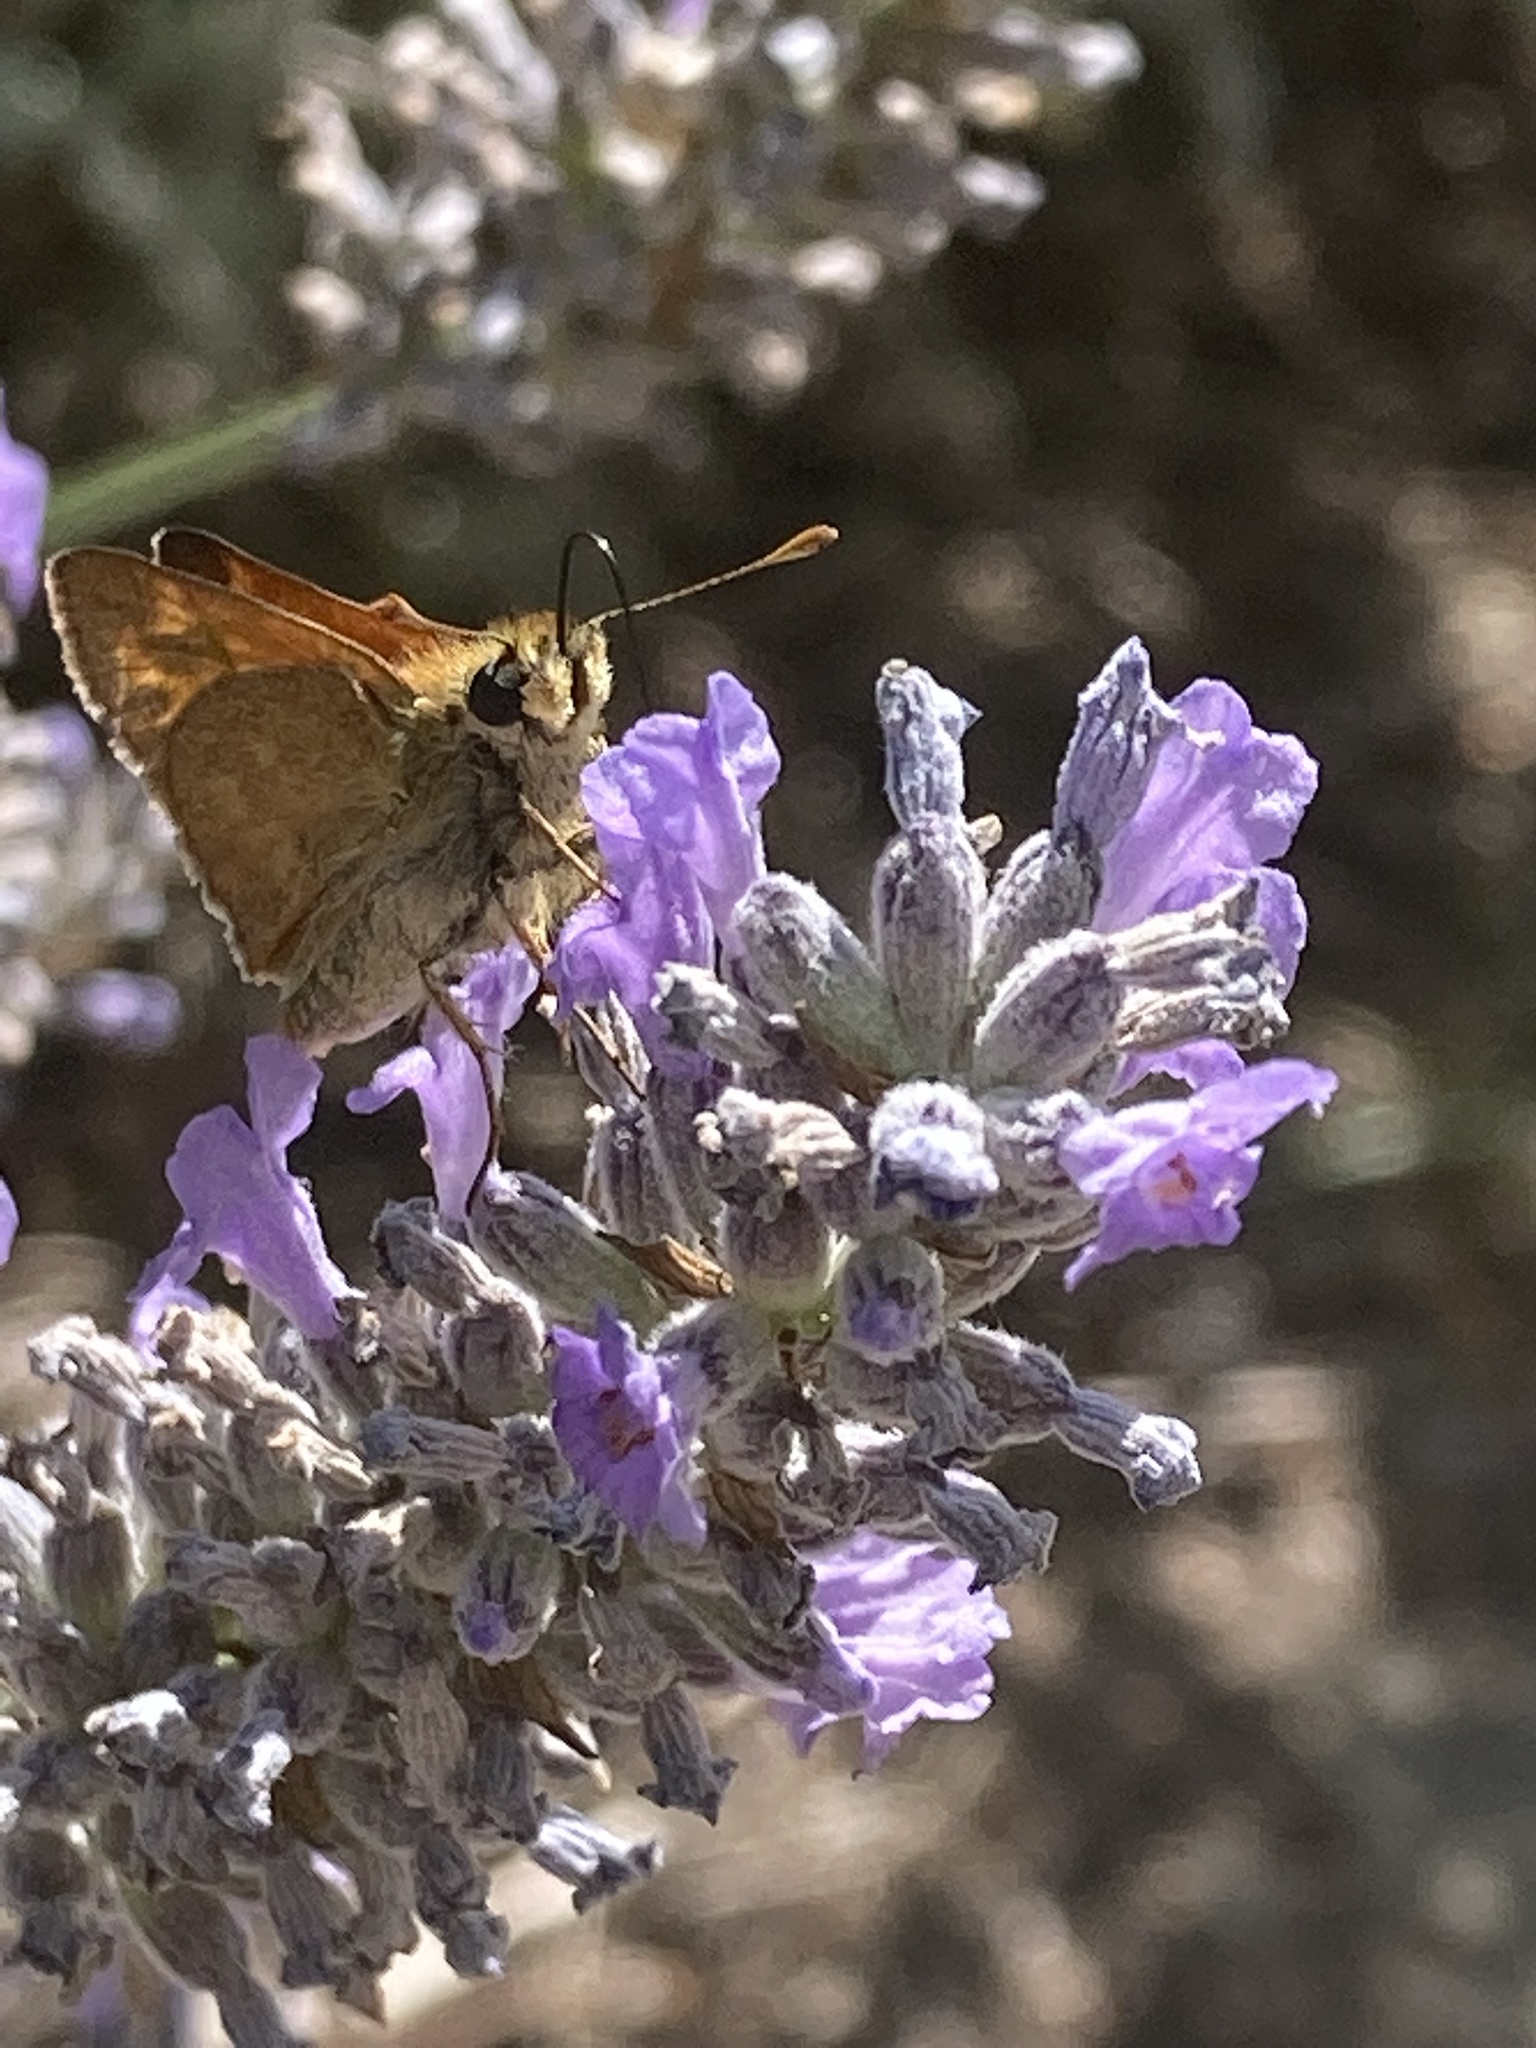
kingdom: Animalia
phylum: Arthropoda
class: Insecta
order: Lepidoptera
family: Hesperiidae
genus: Ochlodes
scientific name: Ochlodes sylvanoides
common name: Woodland skipper
